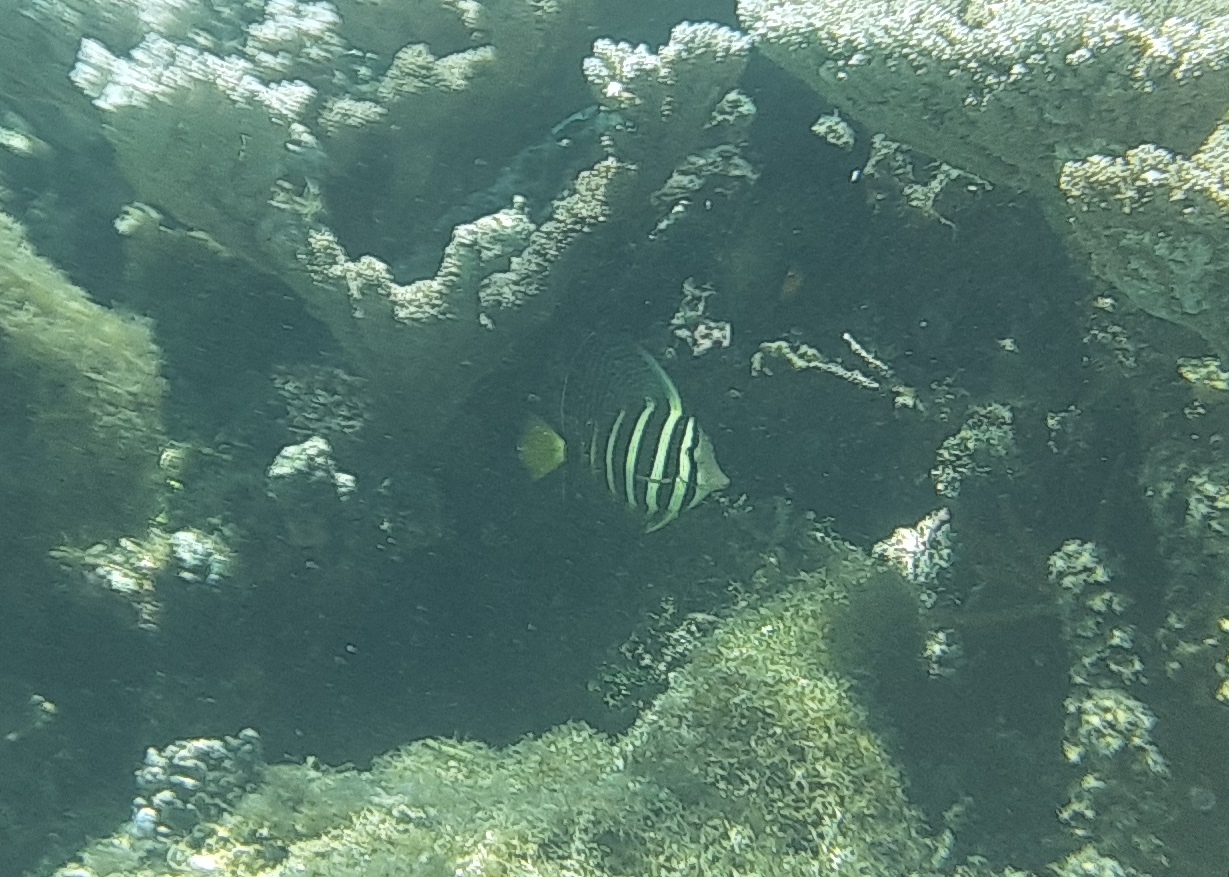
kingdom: Animalia
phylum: Chordata
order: Perciformes
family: Acanthuridae
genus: Zebrasoma
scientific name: Zebrasoma veliferum
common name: Sailfin surgeonfish
